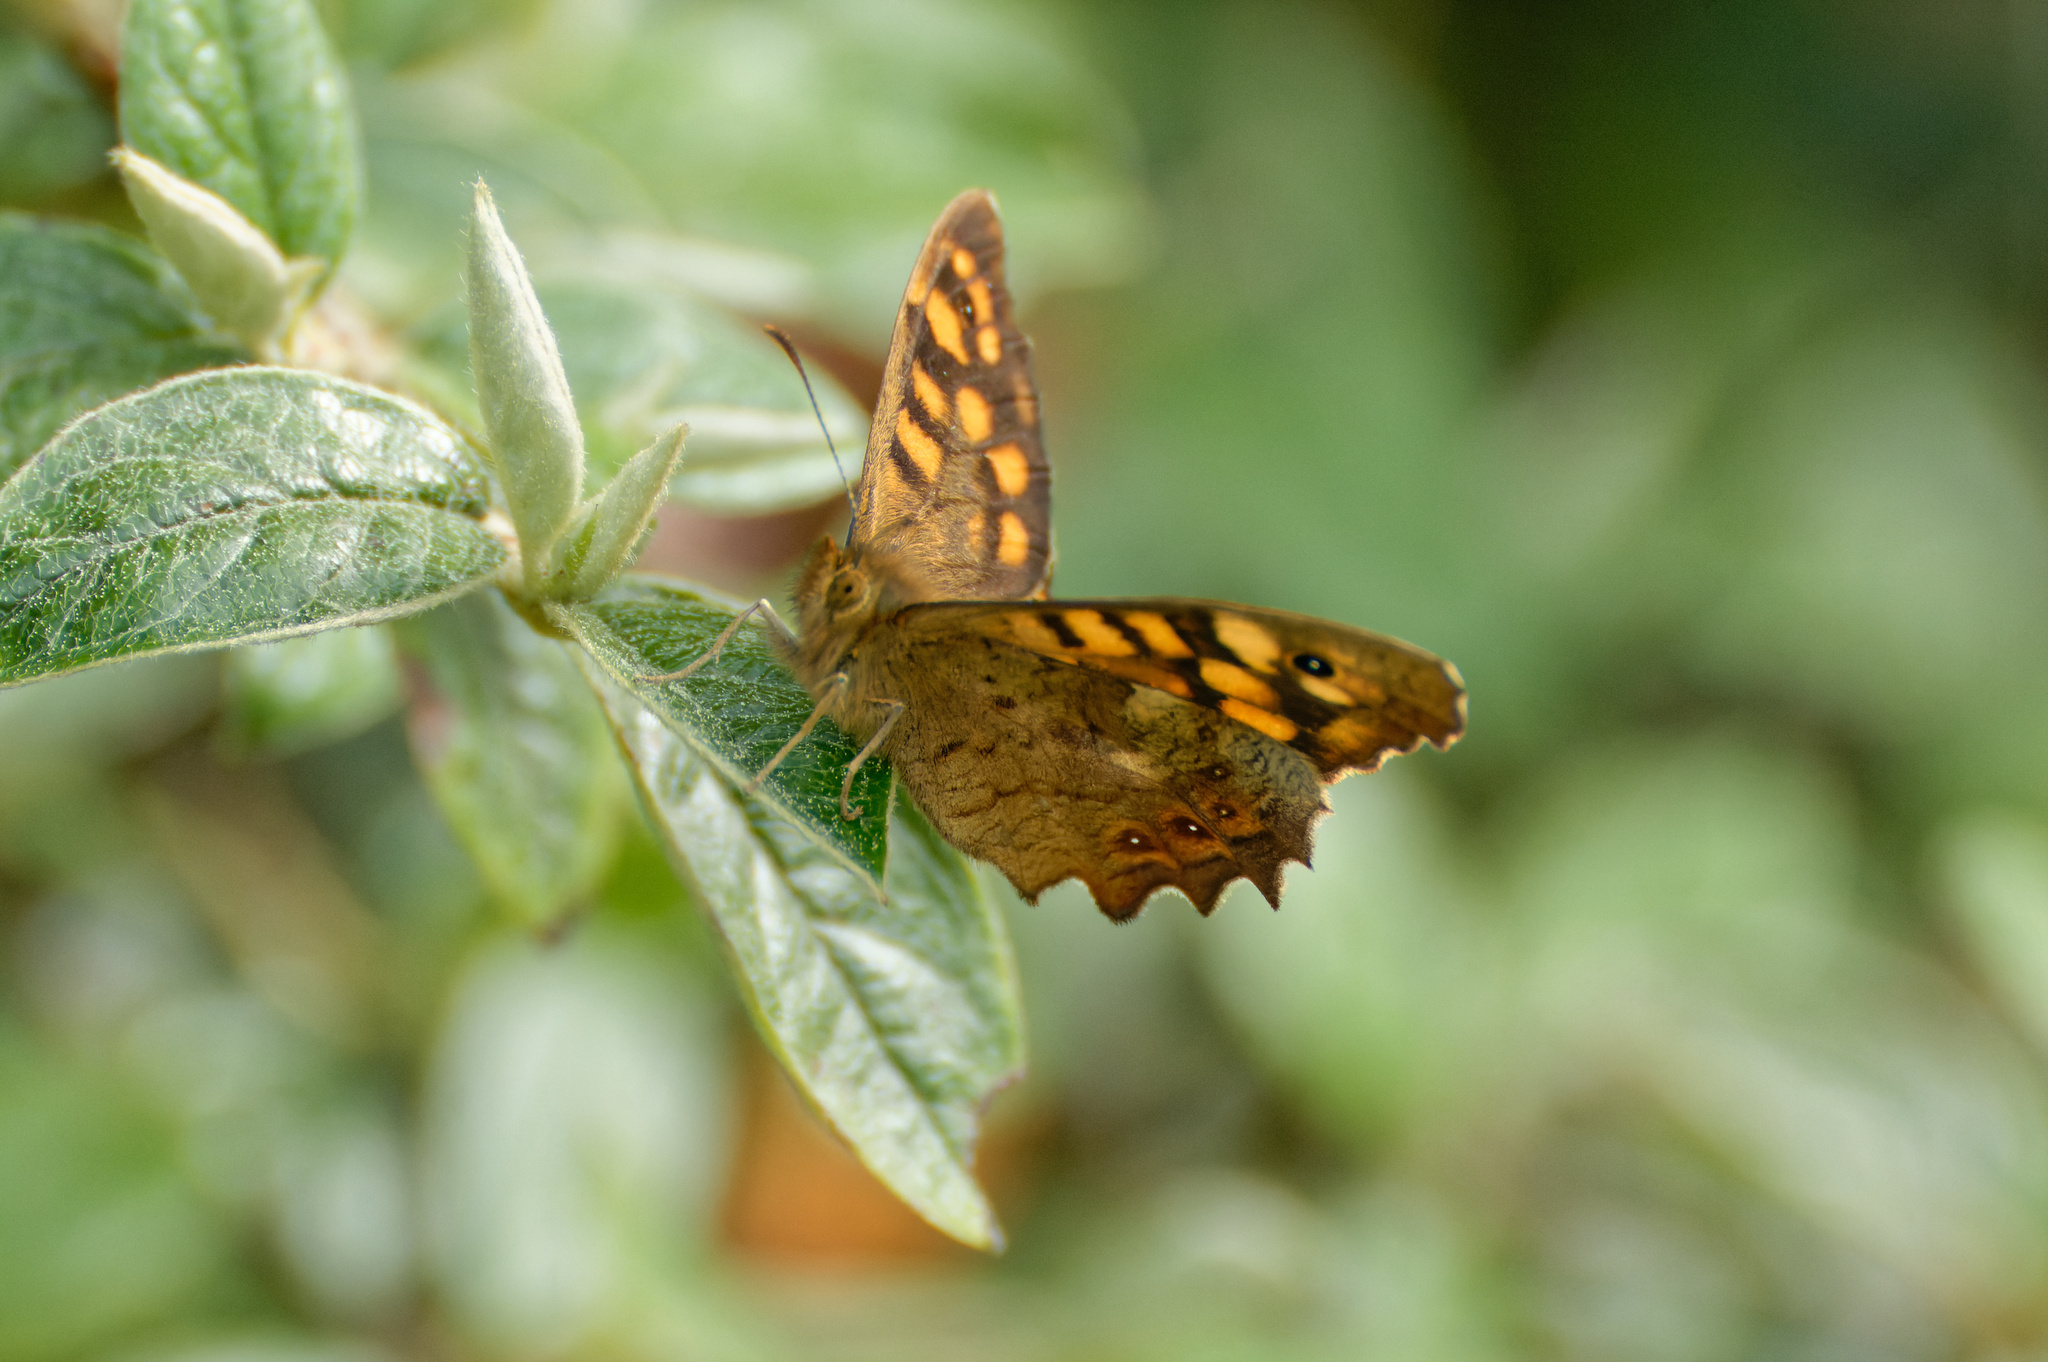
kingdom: Animalia
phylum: Arthropoda
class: Insecta
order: Lepidoptera
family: Nymphalidae
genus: Pararge
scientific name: Pararge aegeria
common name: Speckled wood
